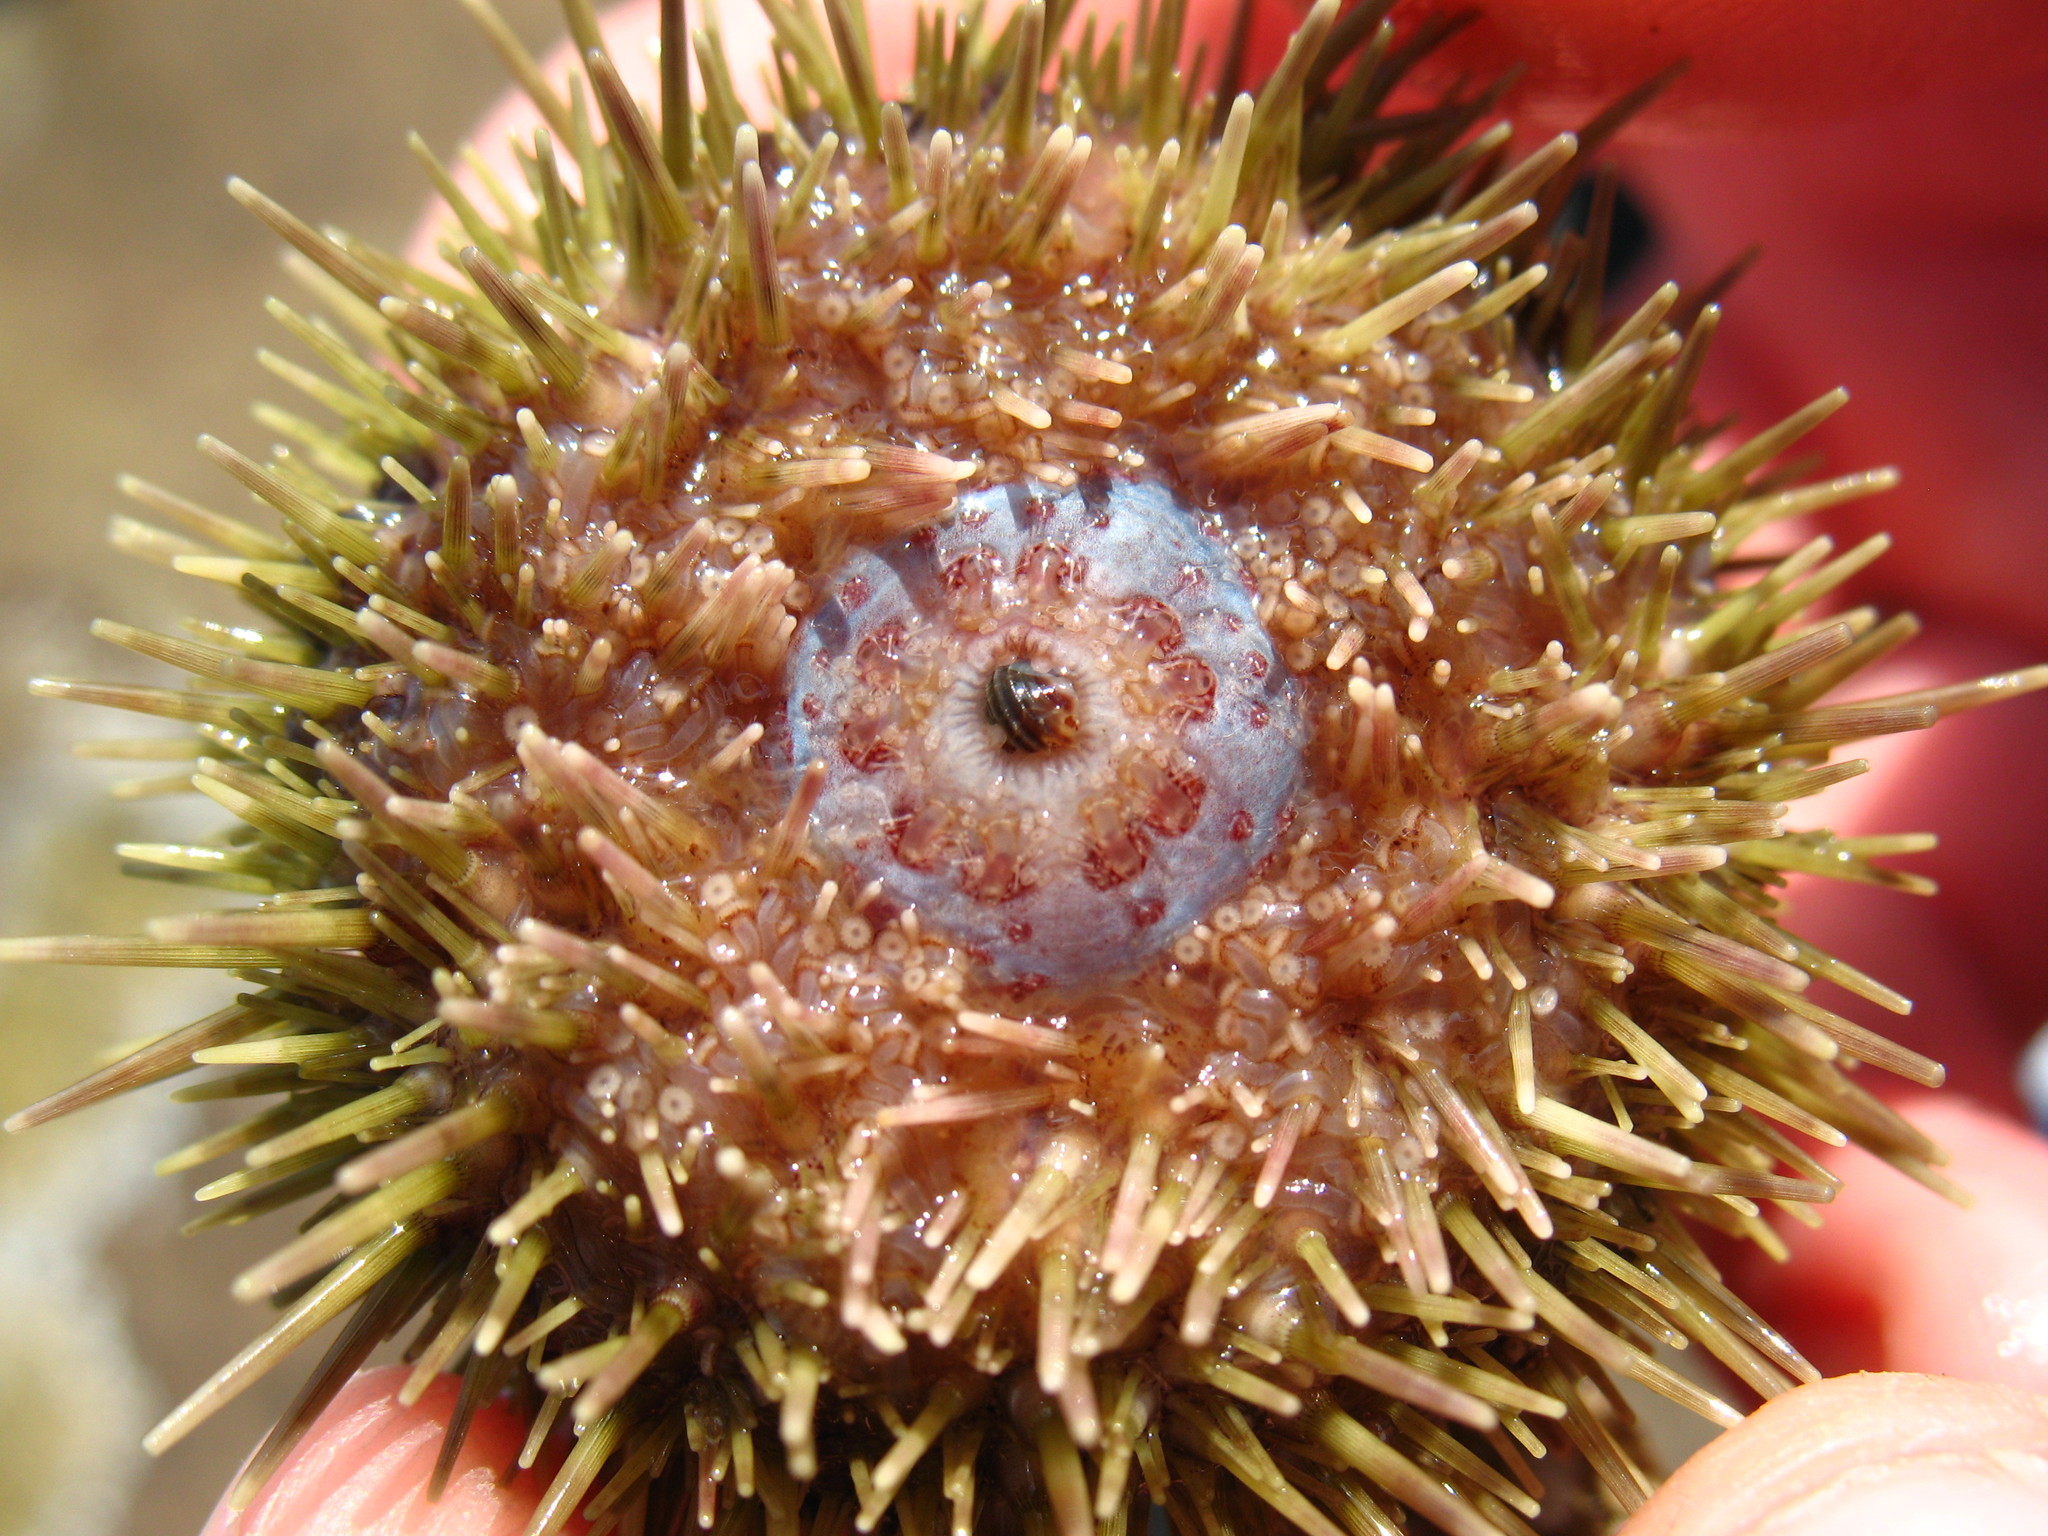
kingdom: Animalia
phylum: Echinodermata
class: Echinoidea
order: Camarodonta
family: Strongylocentrotidae
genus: Strongylocentrotus
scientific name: Strongylocentrotus droebachiensis
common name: Northern sea urchin
